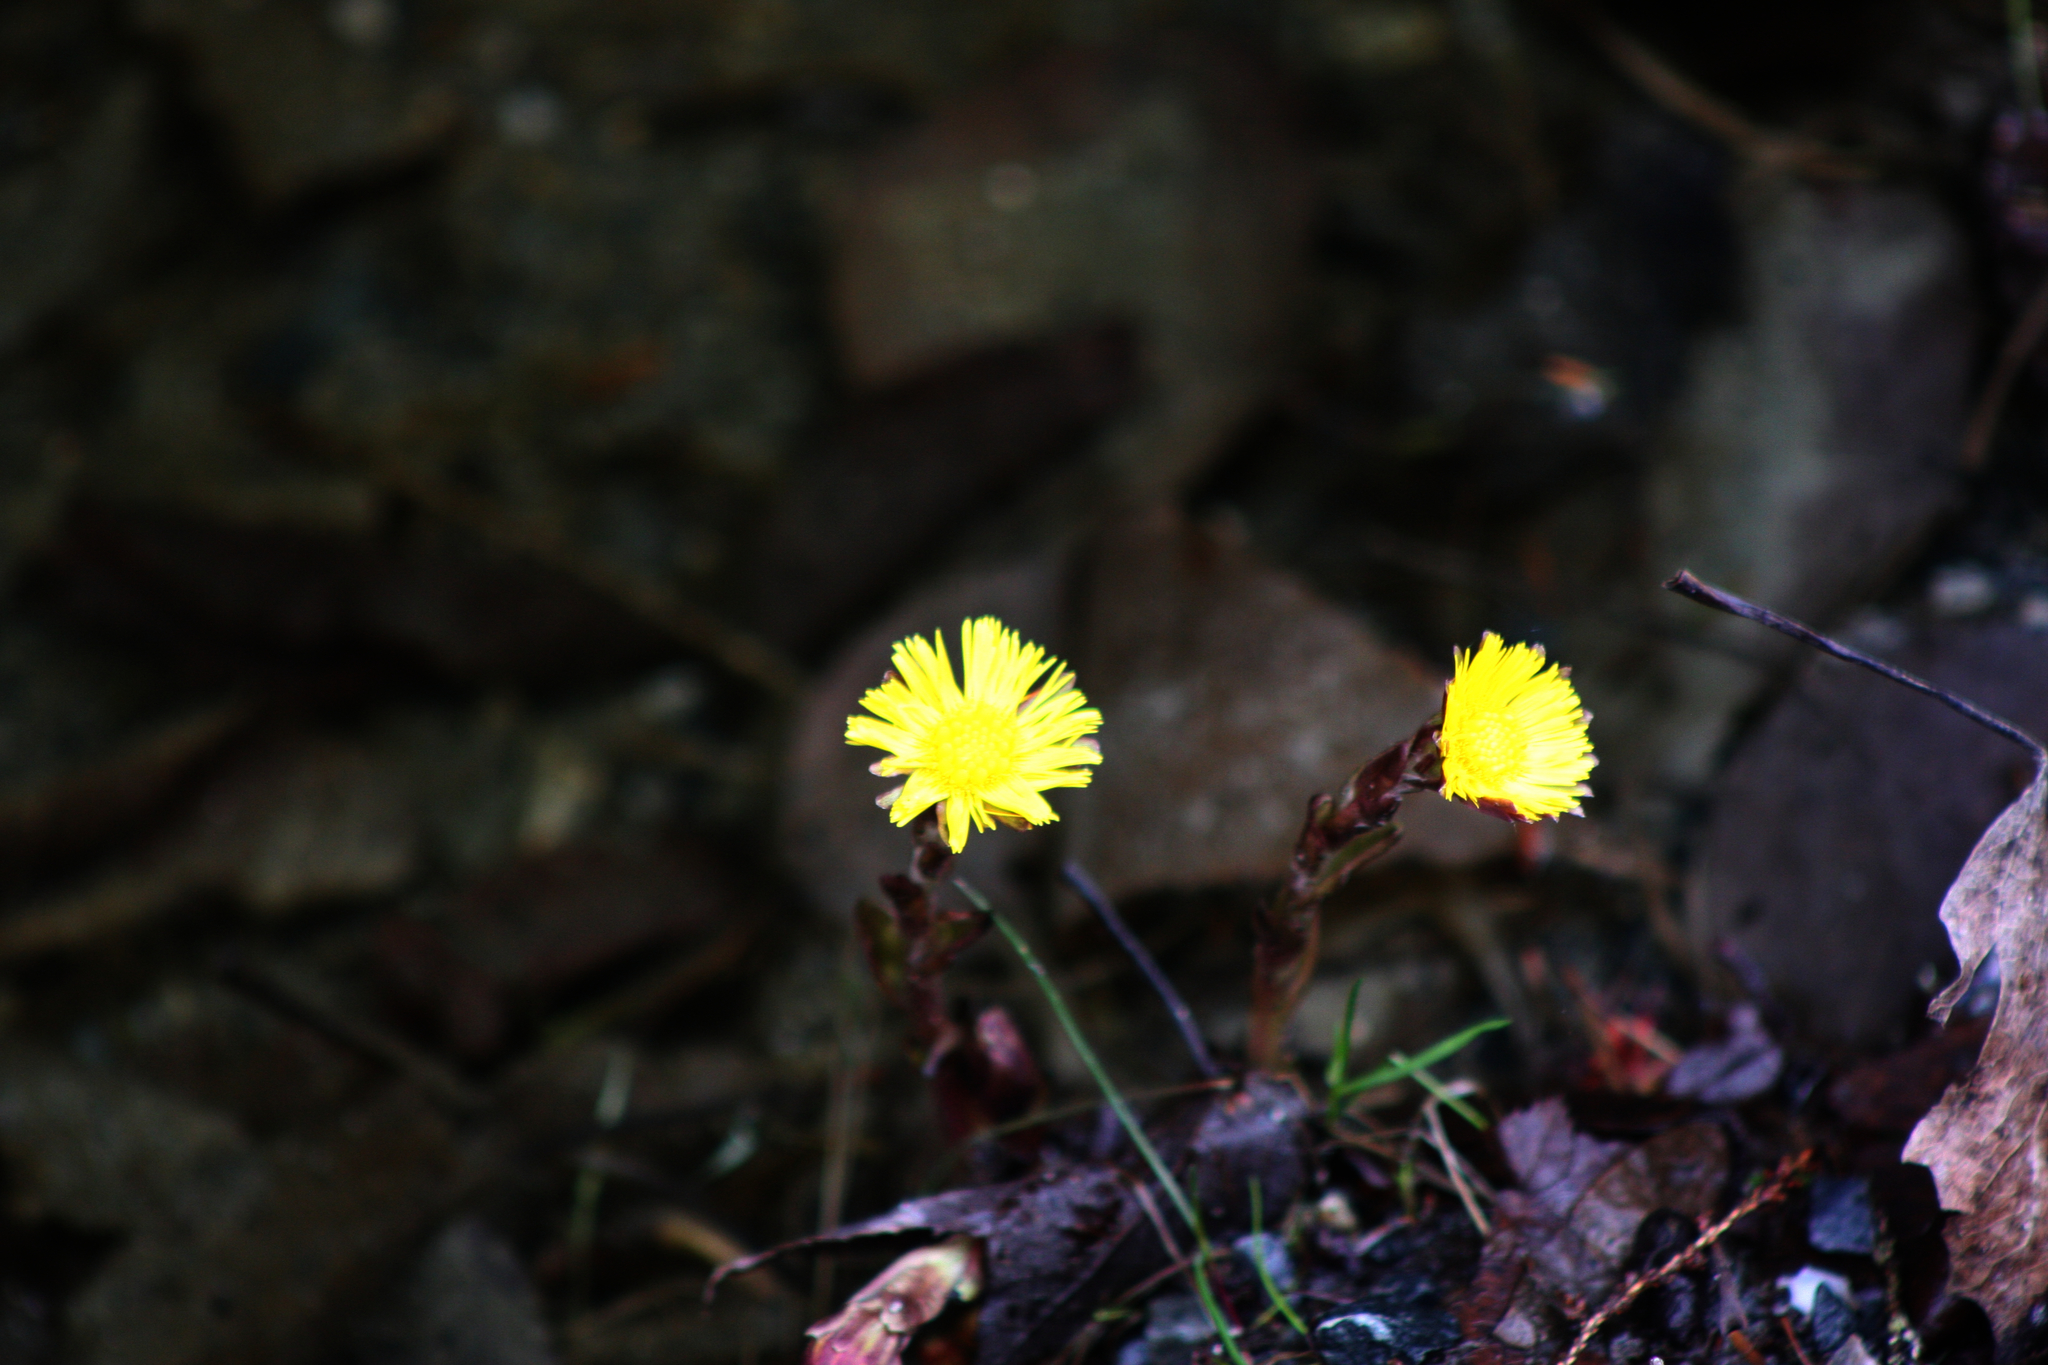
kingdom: Plantae
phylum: Tracheophyta
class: Magnoliopsida
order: Asterales
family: Asteraceae
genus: Tussilago
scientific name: Tussilago farfara
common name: Coltsfoot
